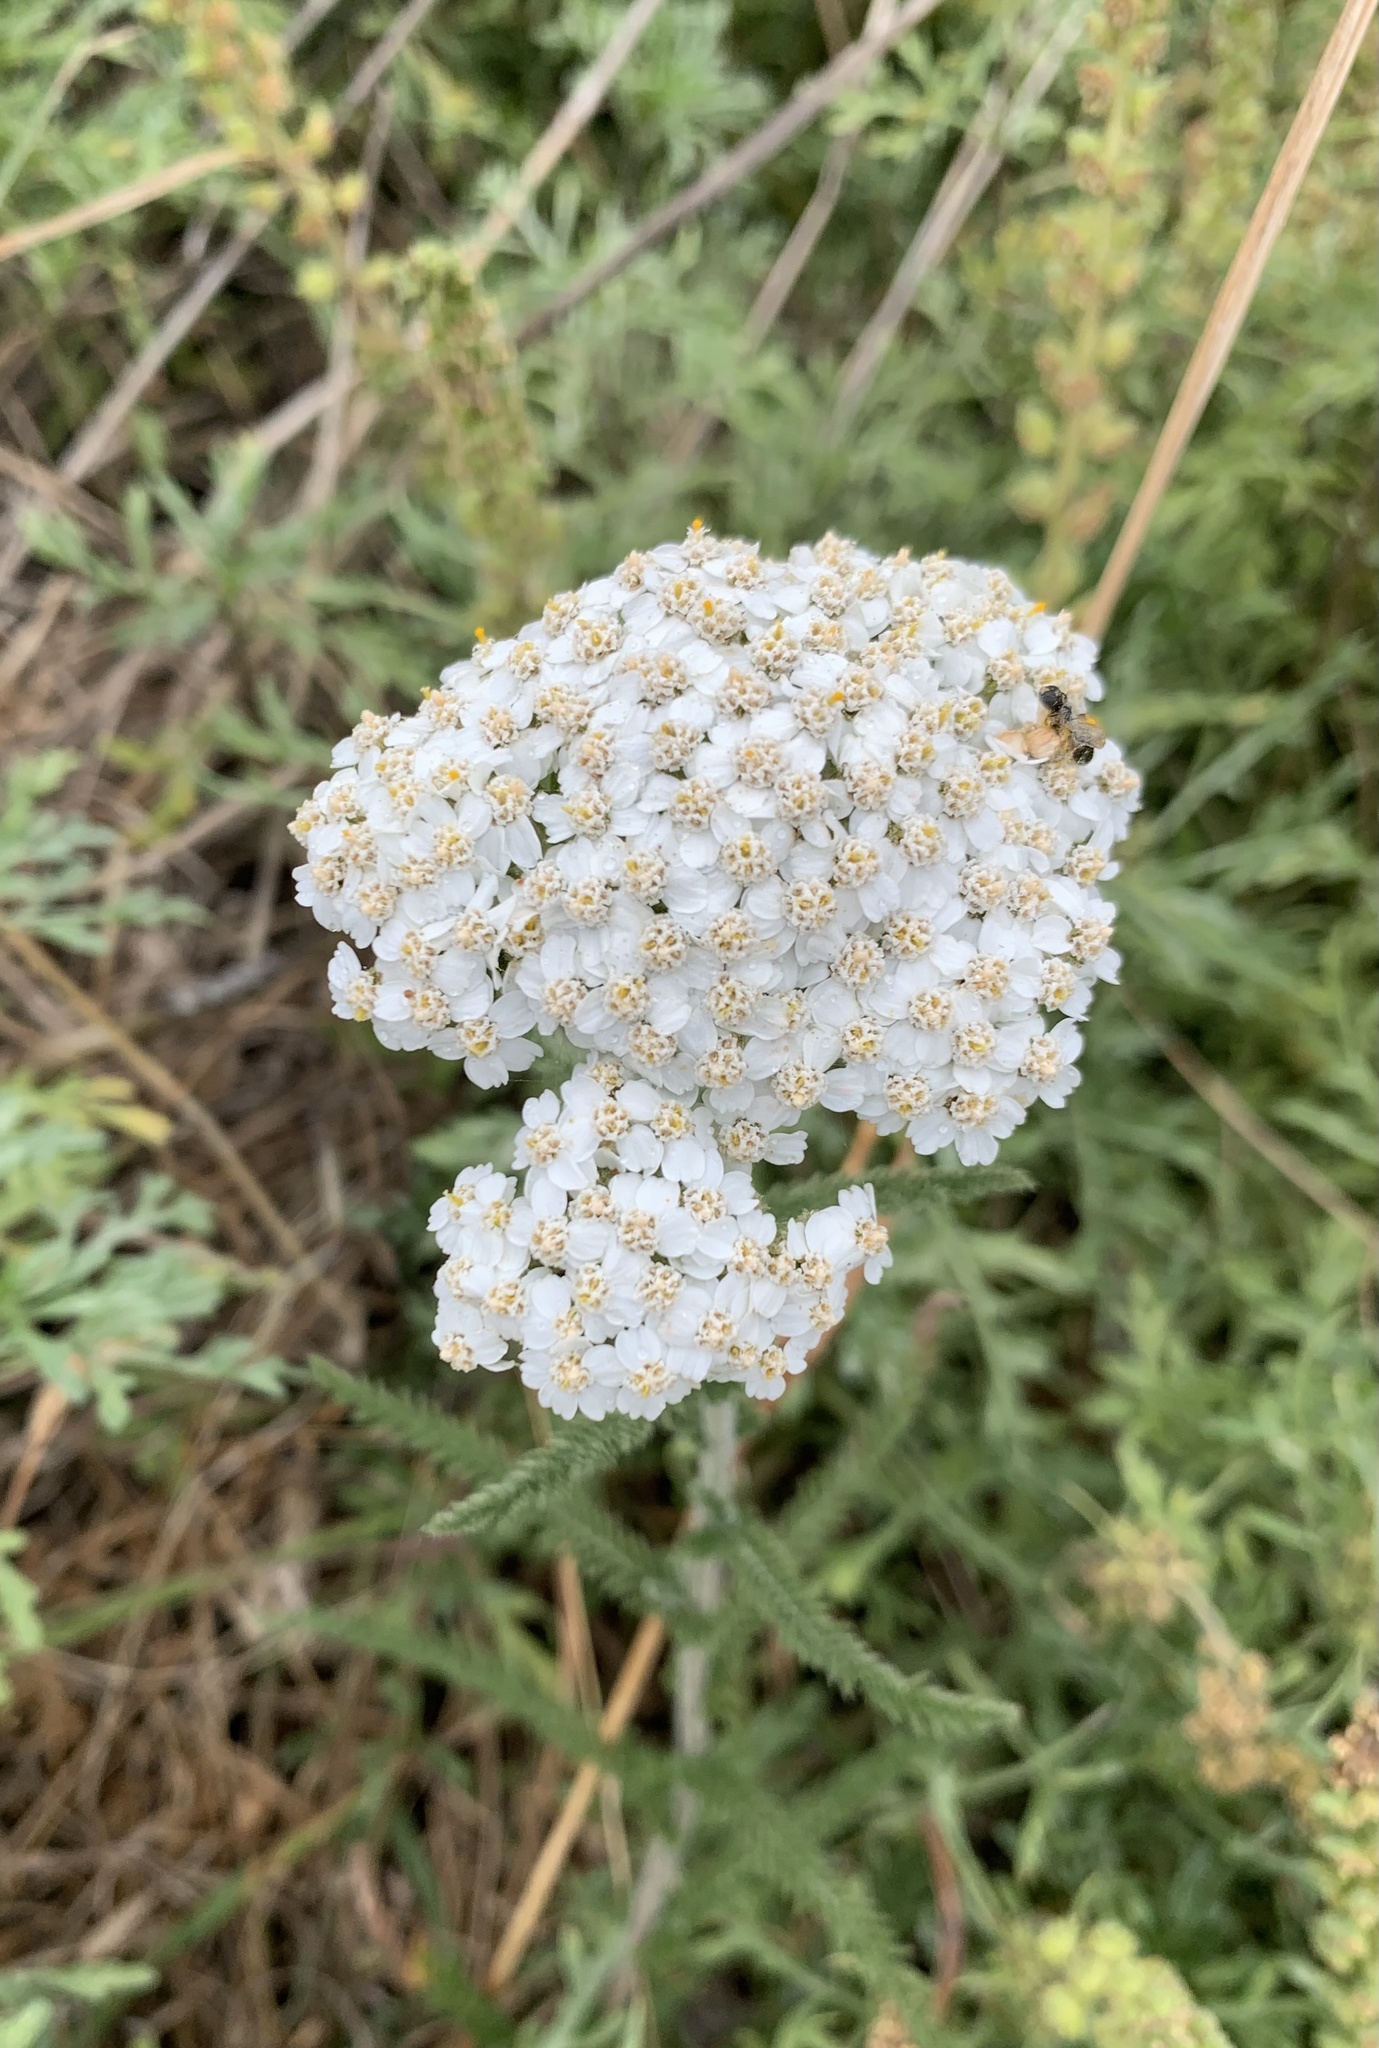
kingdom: Plantae
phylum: Tracheophyta
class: Magnoliopsida
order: Asterales
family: Asteraceae
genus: Achillea
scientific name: Achillea millefolium
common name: Yarrow
